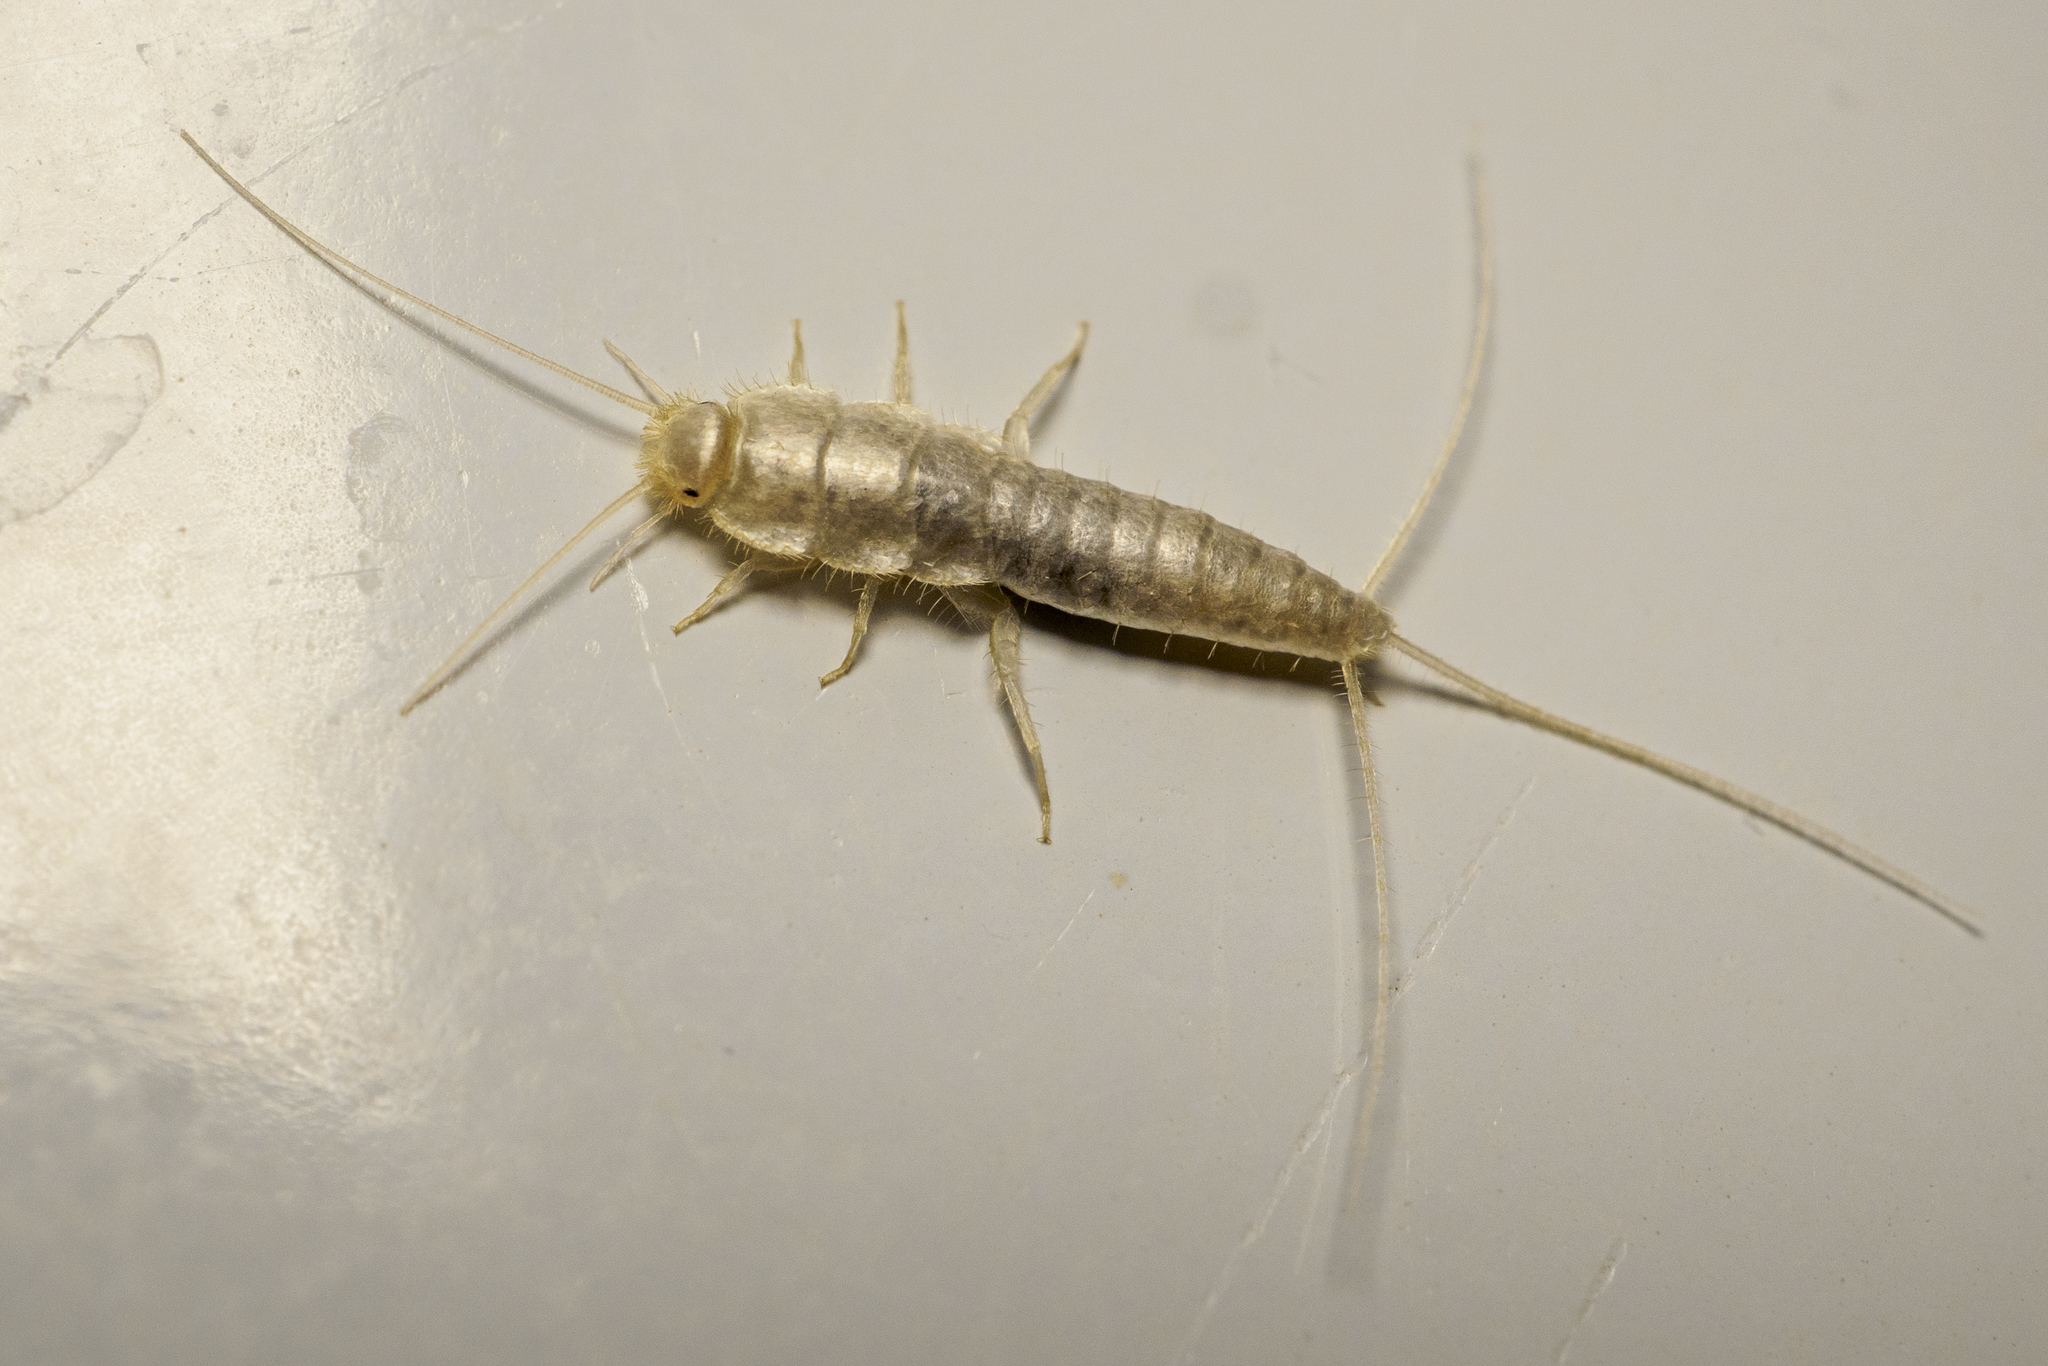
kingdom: Animalia
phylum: Arthropoda
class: Insecta
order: Zygentoma
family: Lepismatidae
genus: Ctenolepisma
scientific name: Ctenolepisma calvum
